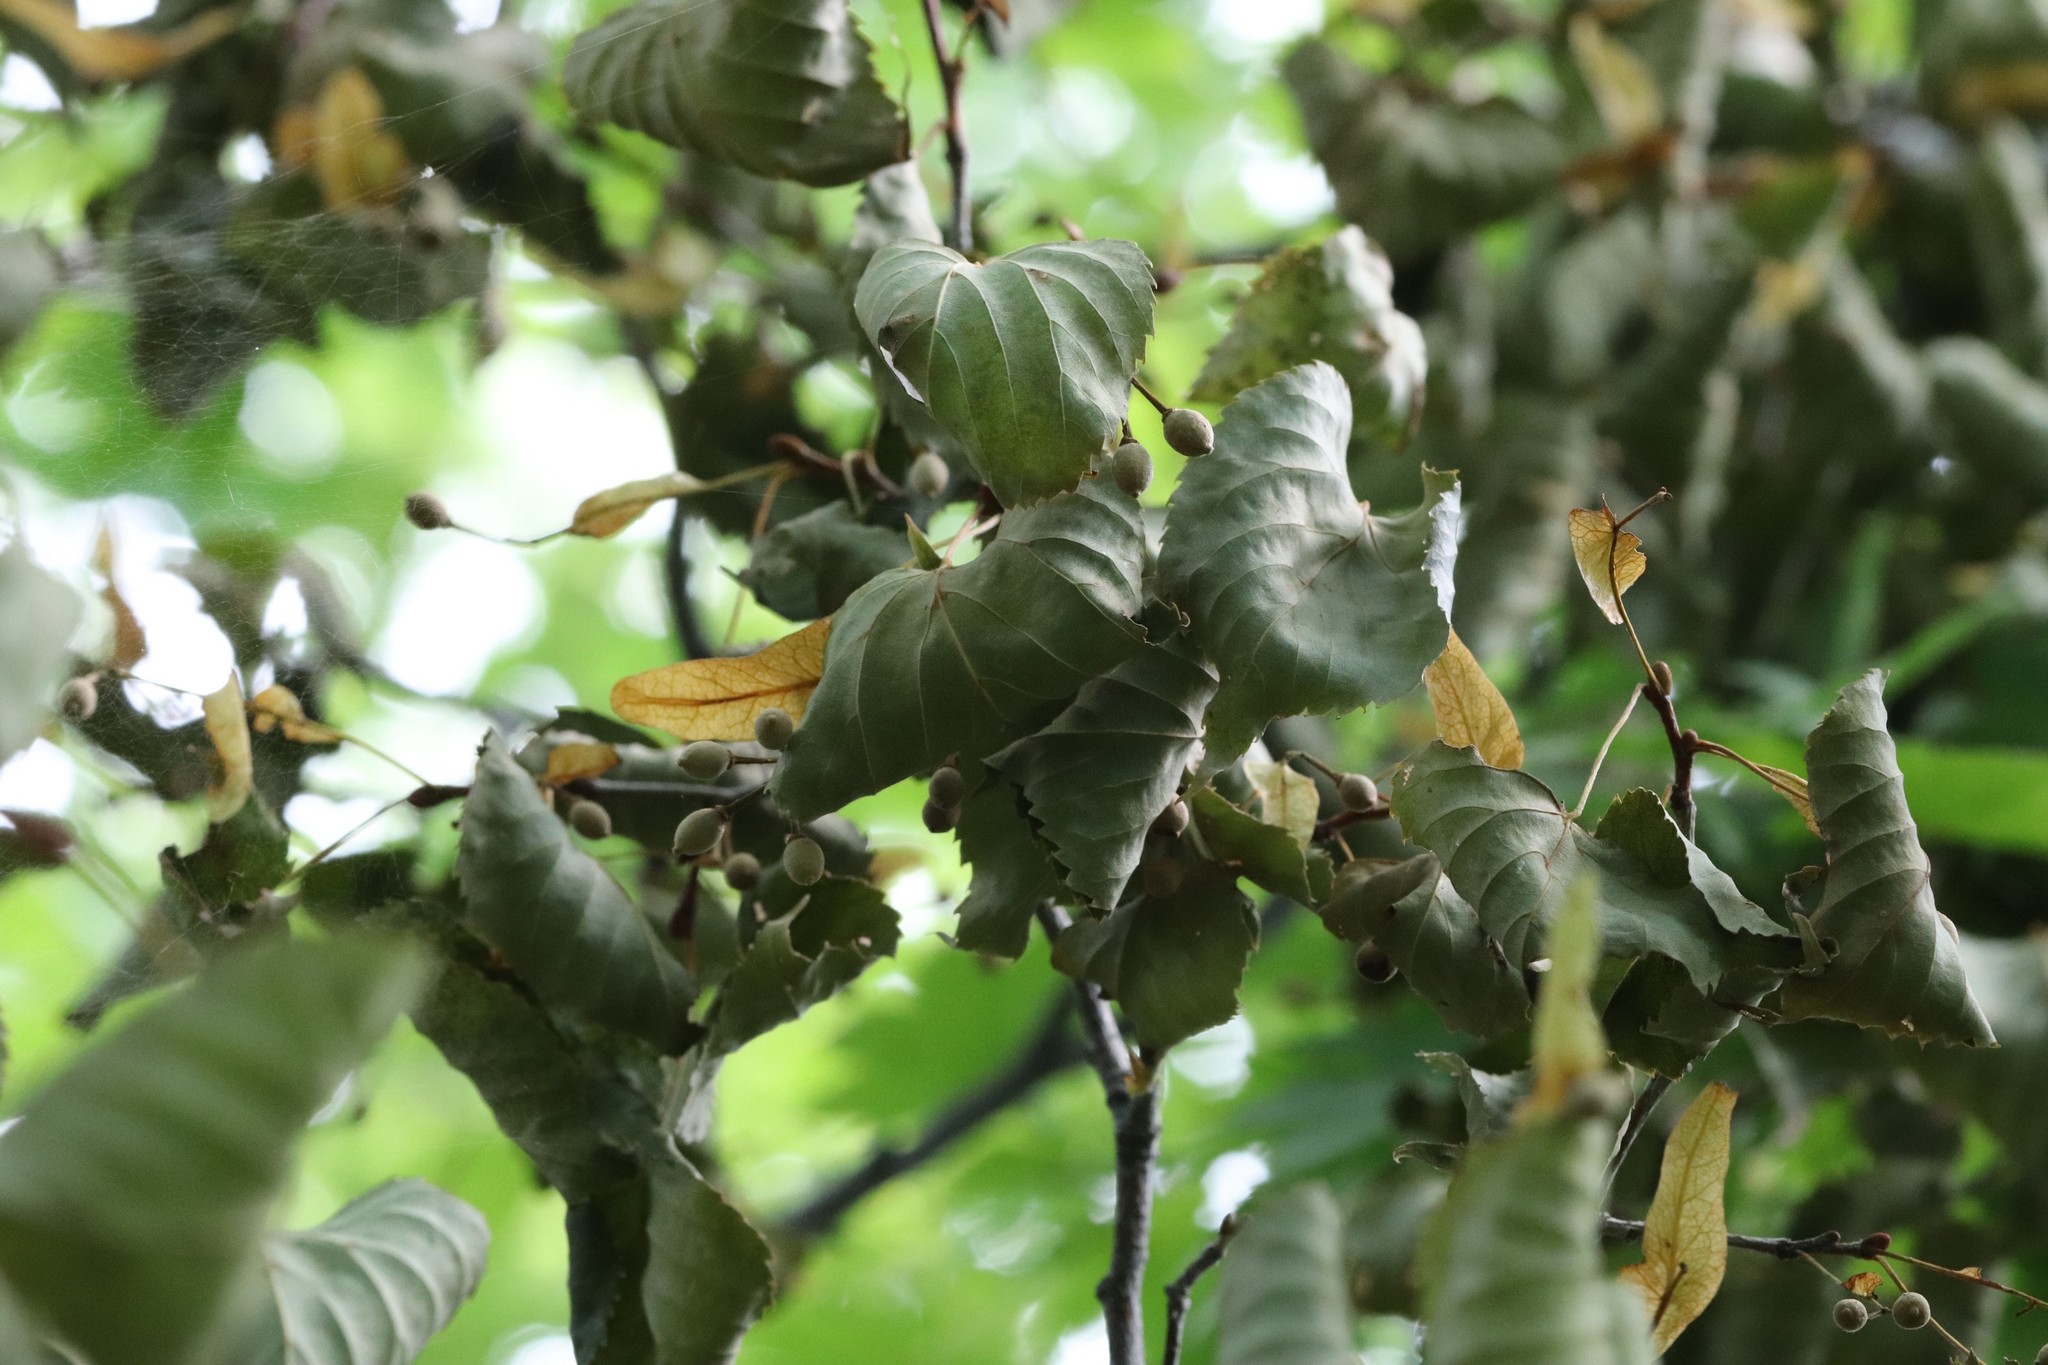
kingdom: Plantae
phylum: Tracheophyta
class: Magnoliopsida
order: Malvales
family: Malvaceae
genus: Tilia
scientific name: Tilia amurensis
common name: Amur lime
